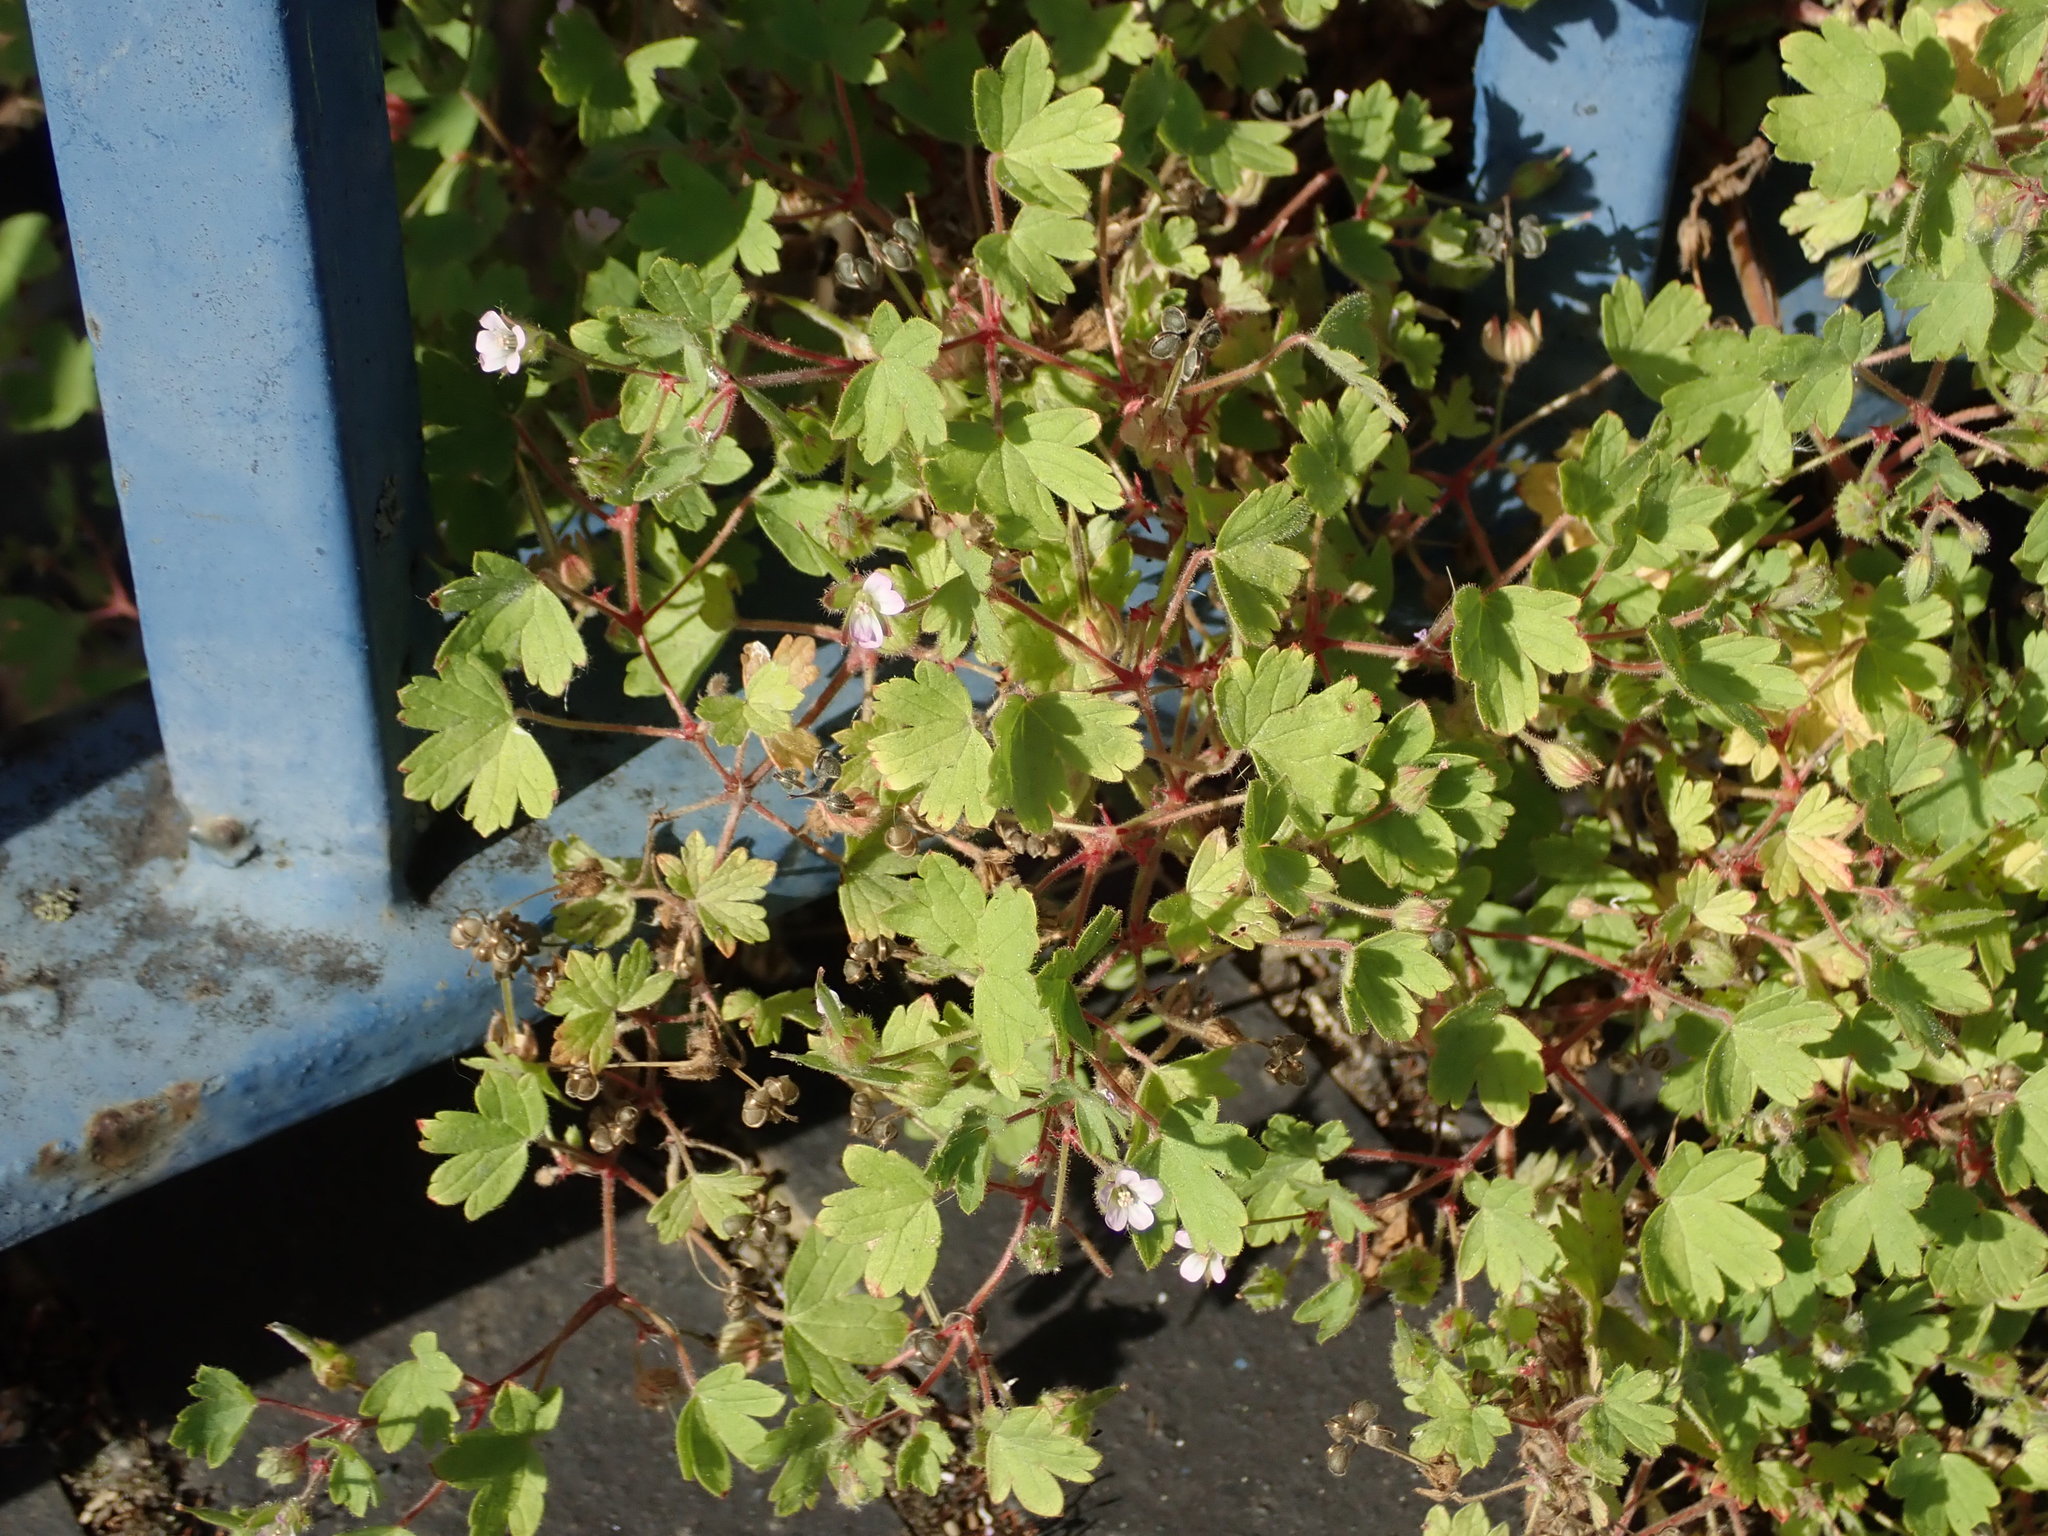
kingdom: Plantae
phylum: Tracheophyta
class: Magnoliopsida
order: Geraniales
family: Geraniaceae
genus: Geranium
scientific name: Geranium rotundifolium
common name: Round-leaved crane's-bill
